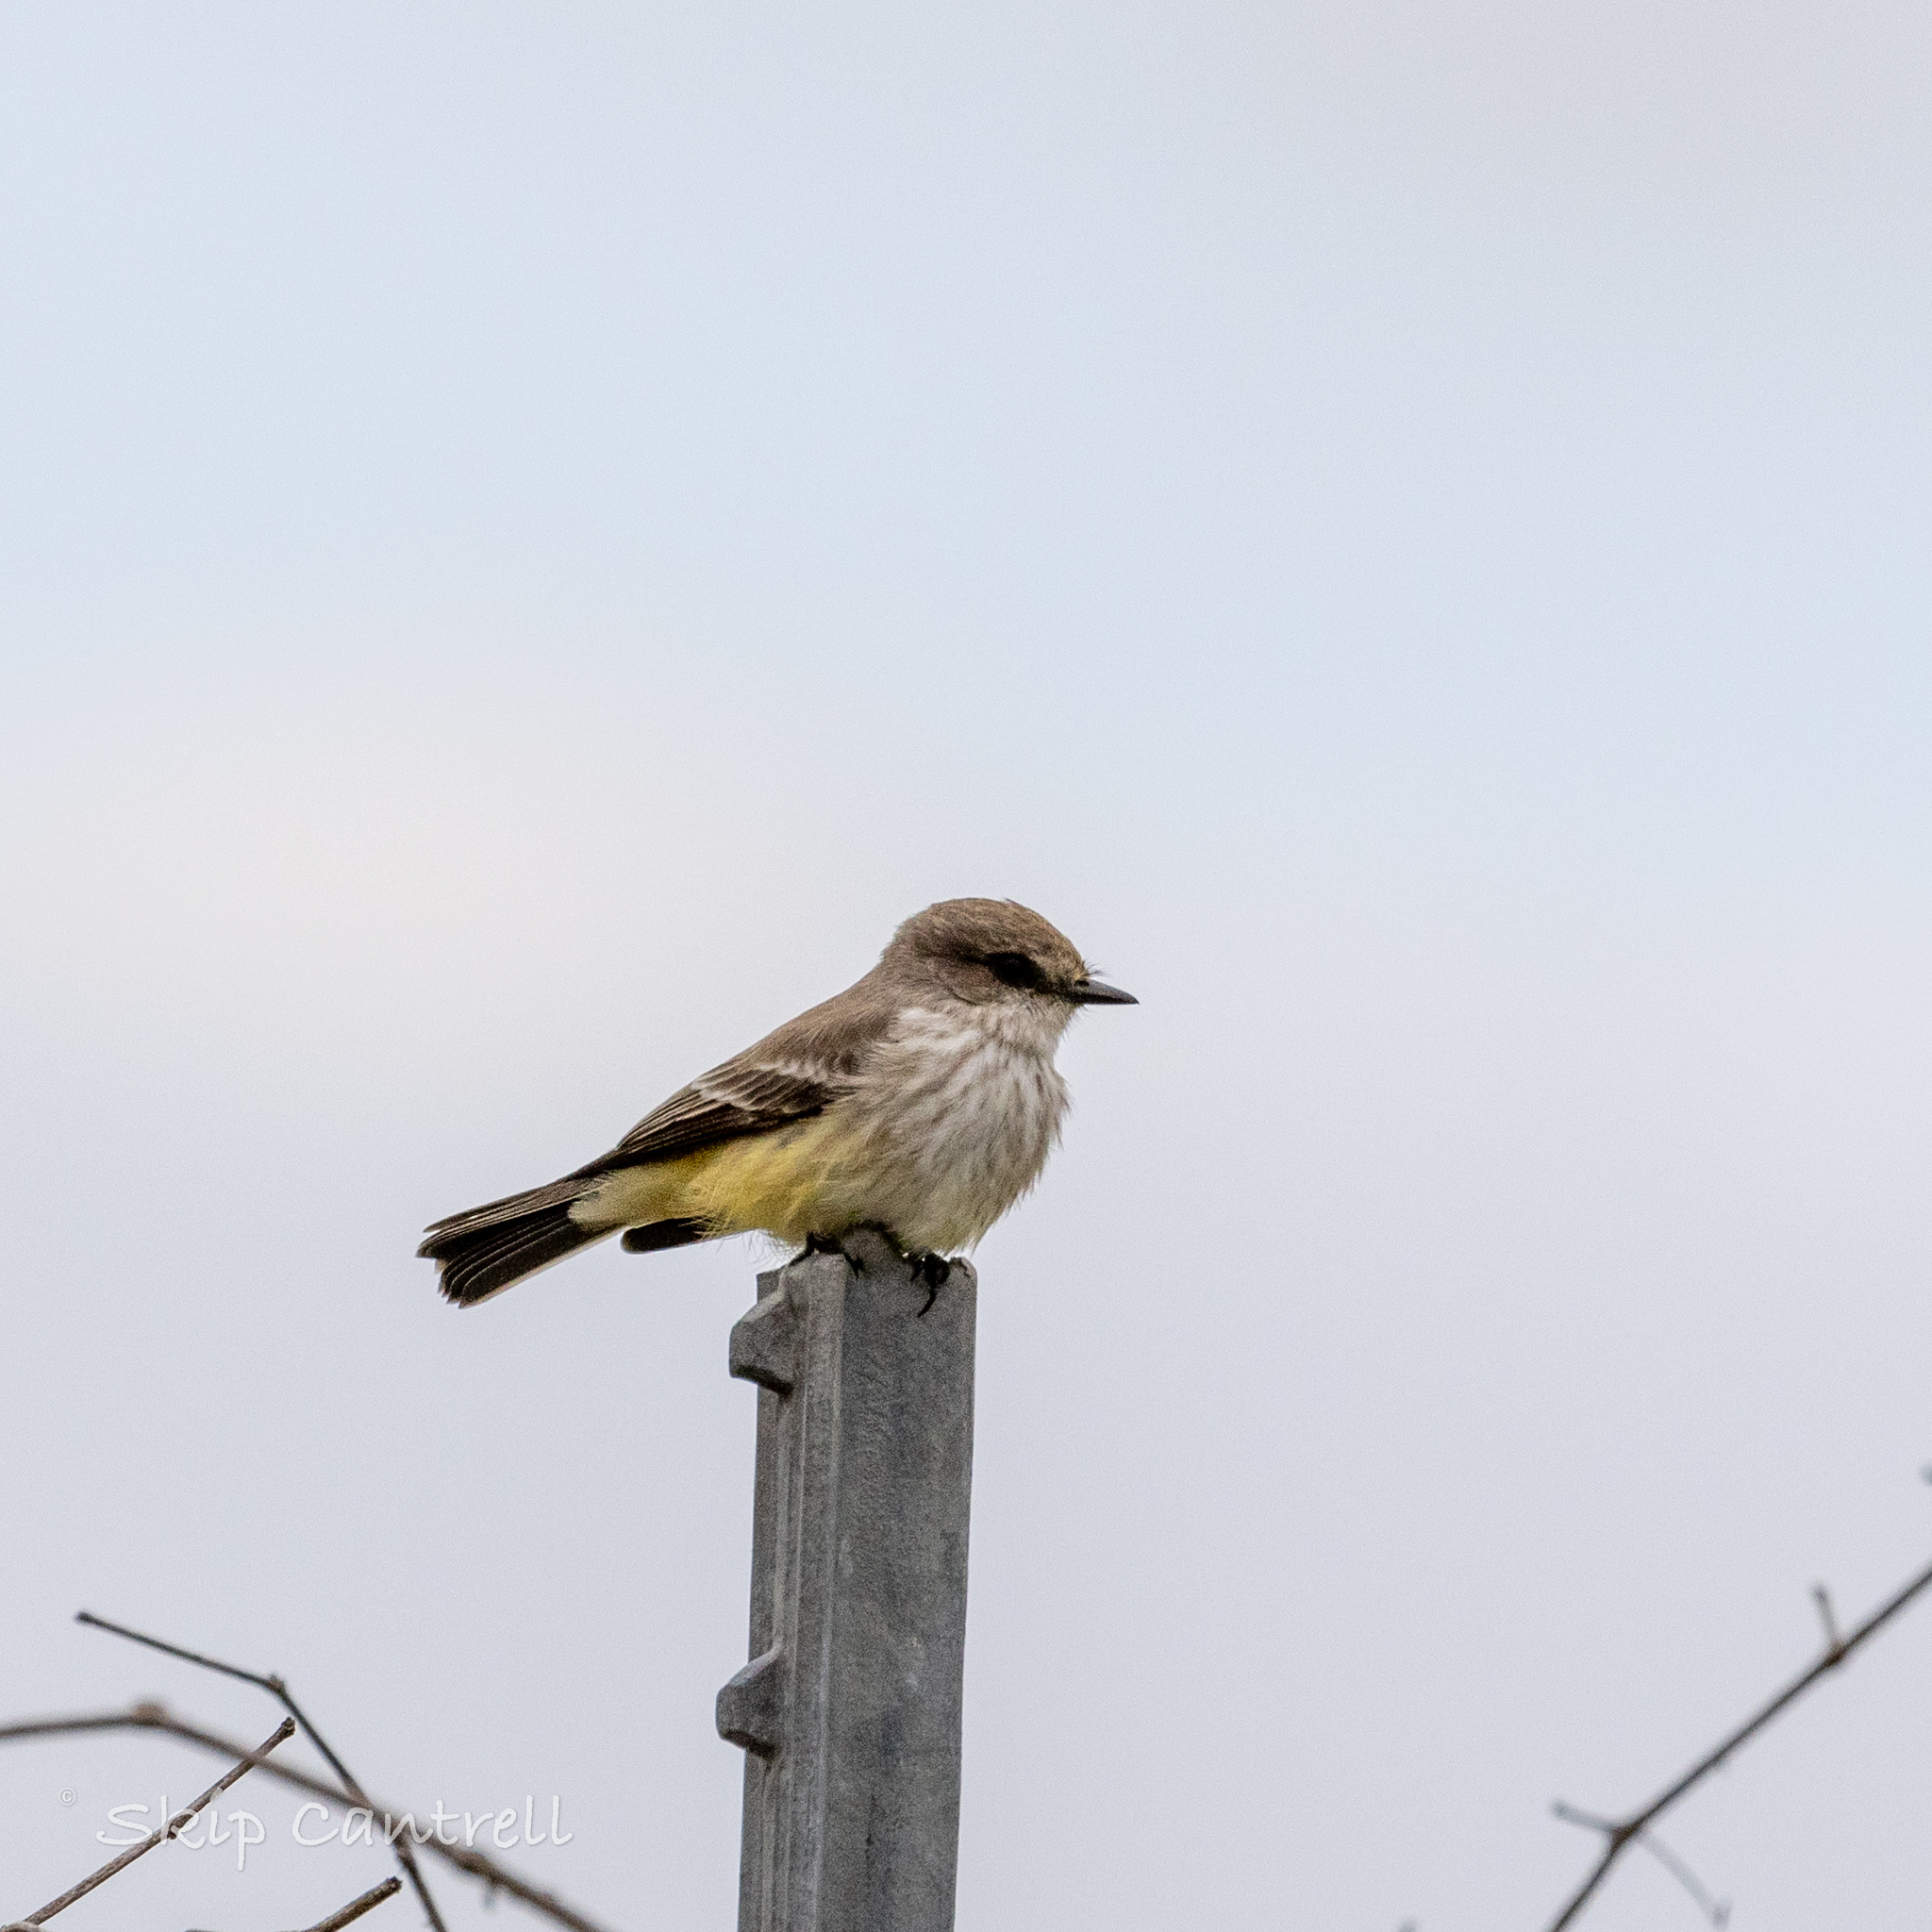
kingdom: Animalia
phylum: Chordata
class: Aves
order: Passeriformes
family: Tyrannidae
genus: Pyrocephalus
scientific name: Pyrocephalus rubinus
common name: Vermilion flycatcher
